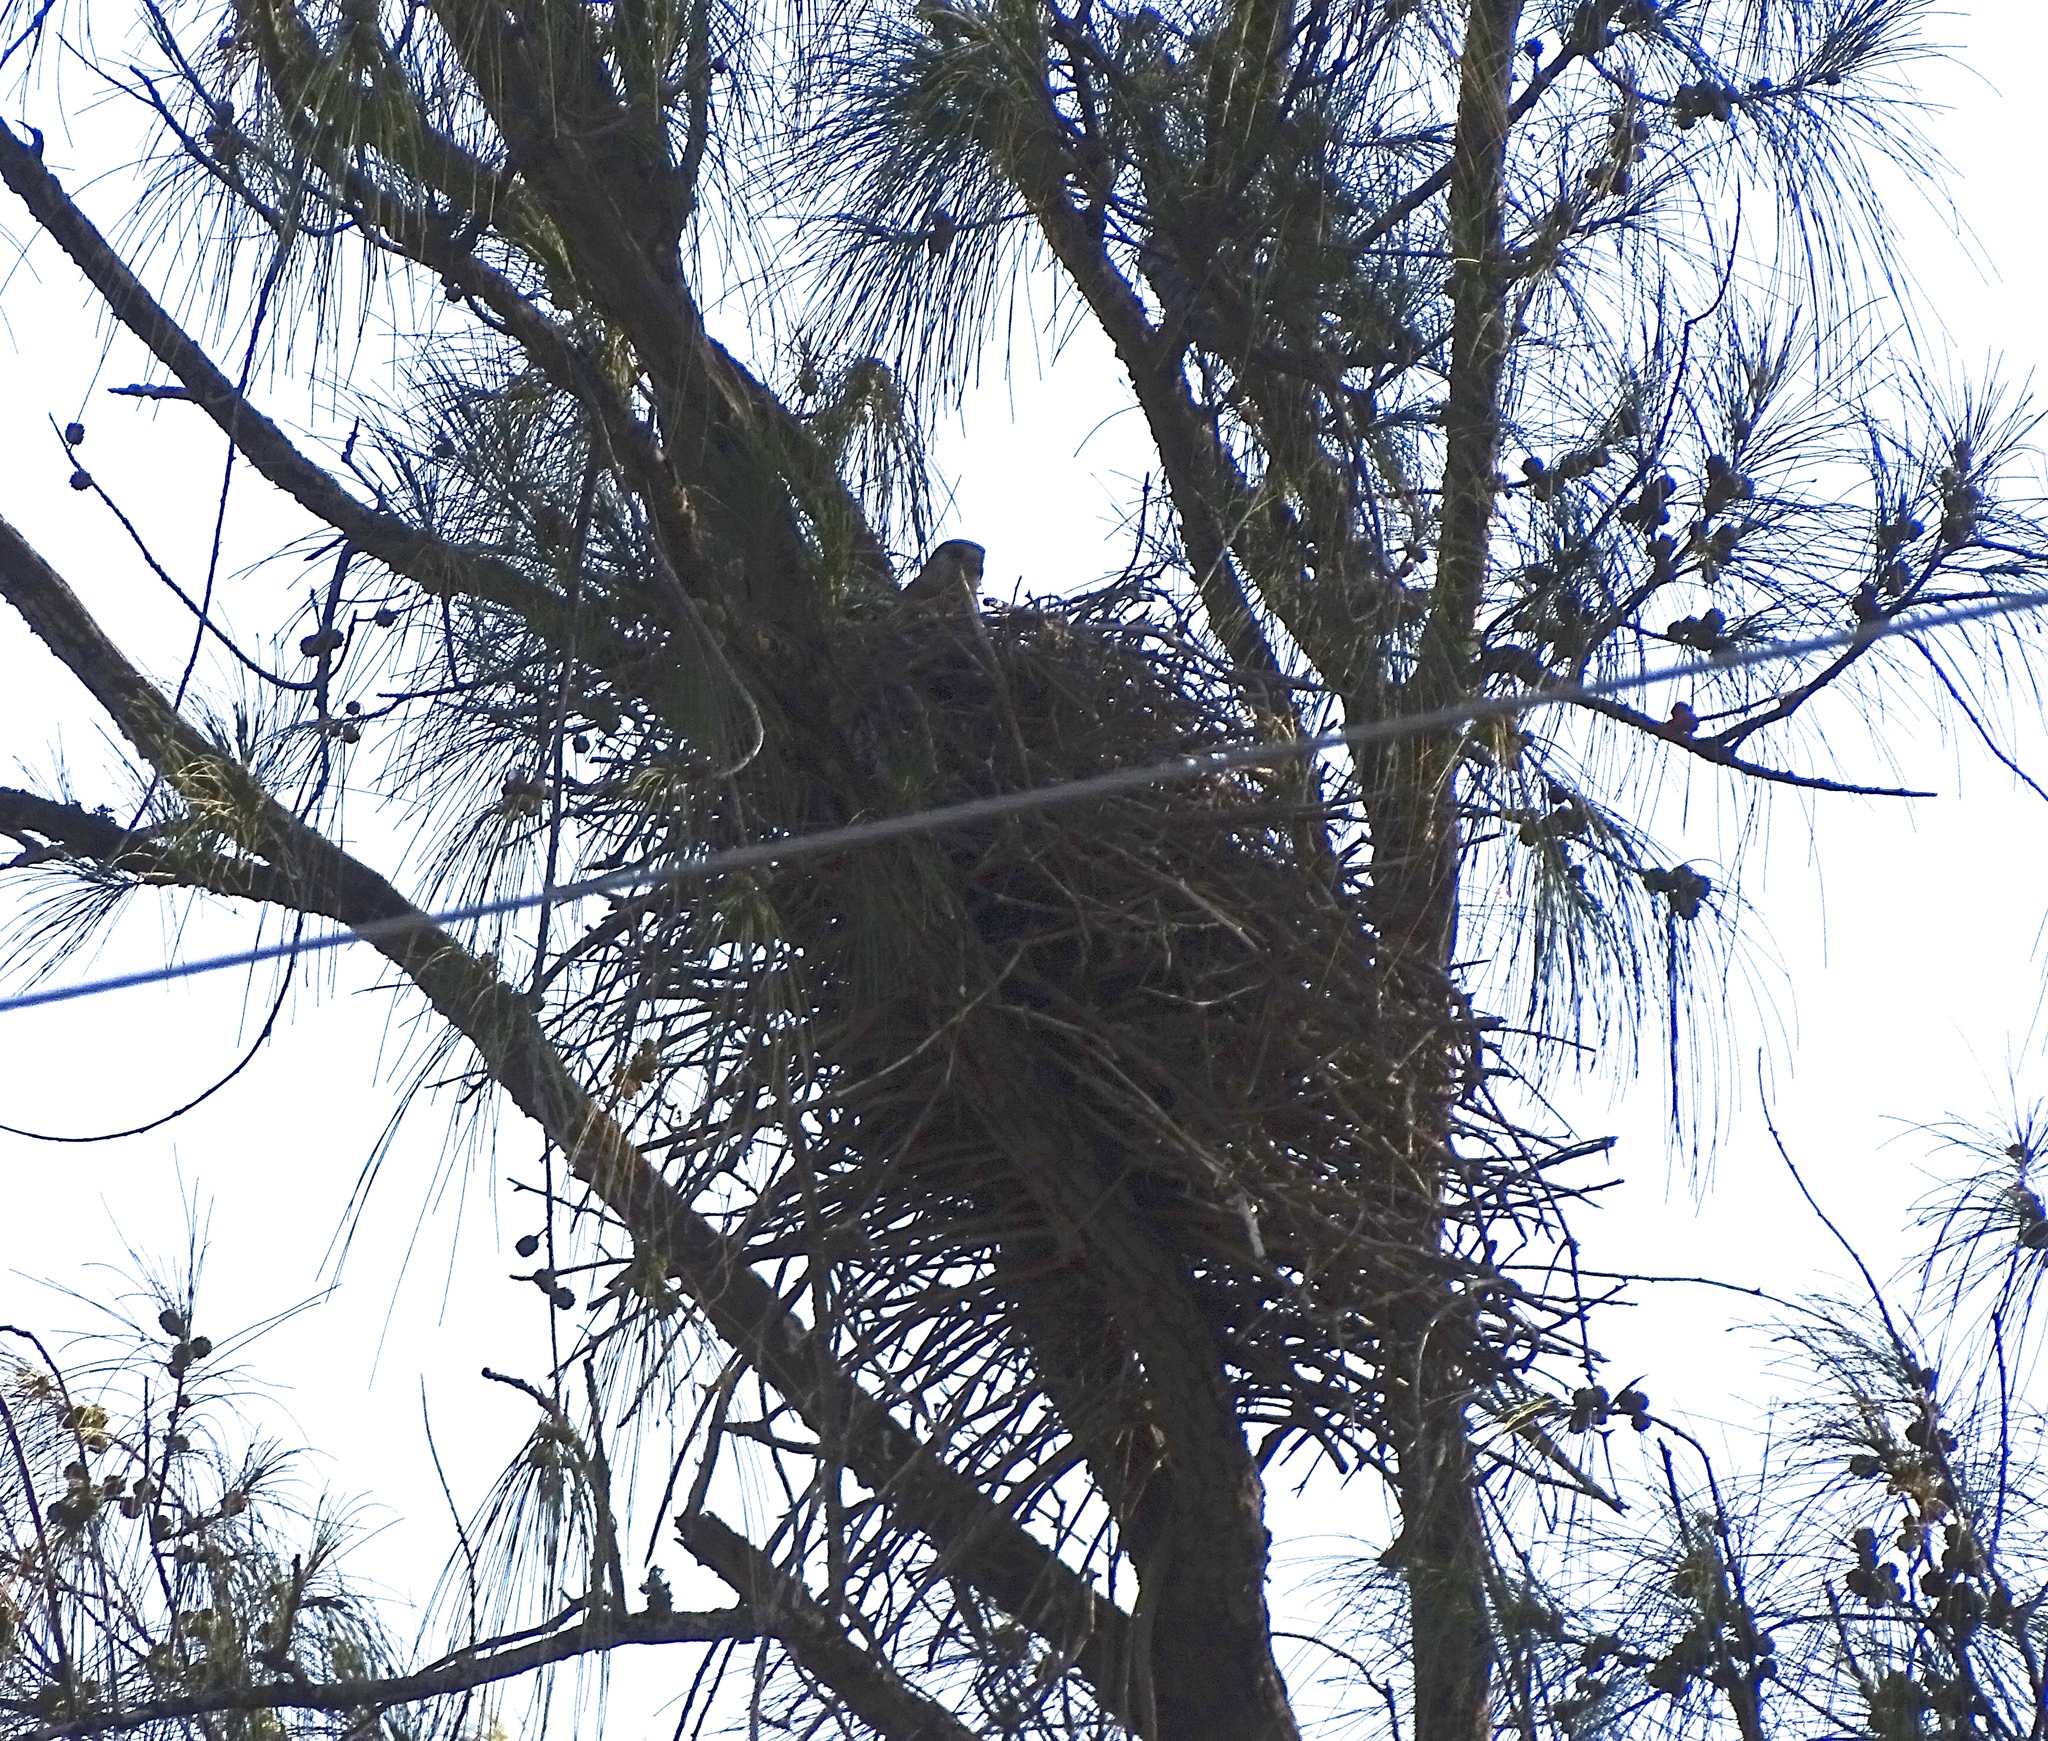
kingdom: Animalia
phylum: Chordata
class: Aves
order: Falconiformes
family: Falconidae
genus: Falco
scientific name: Falco newtoni
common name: Malagasy kestrel
